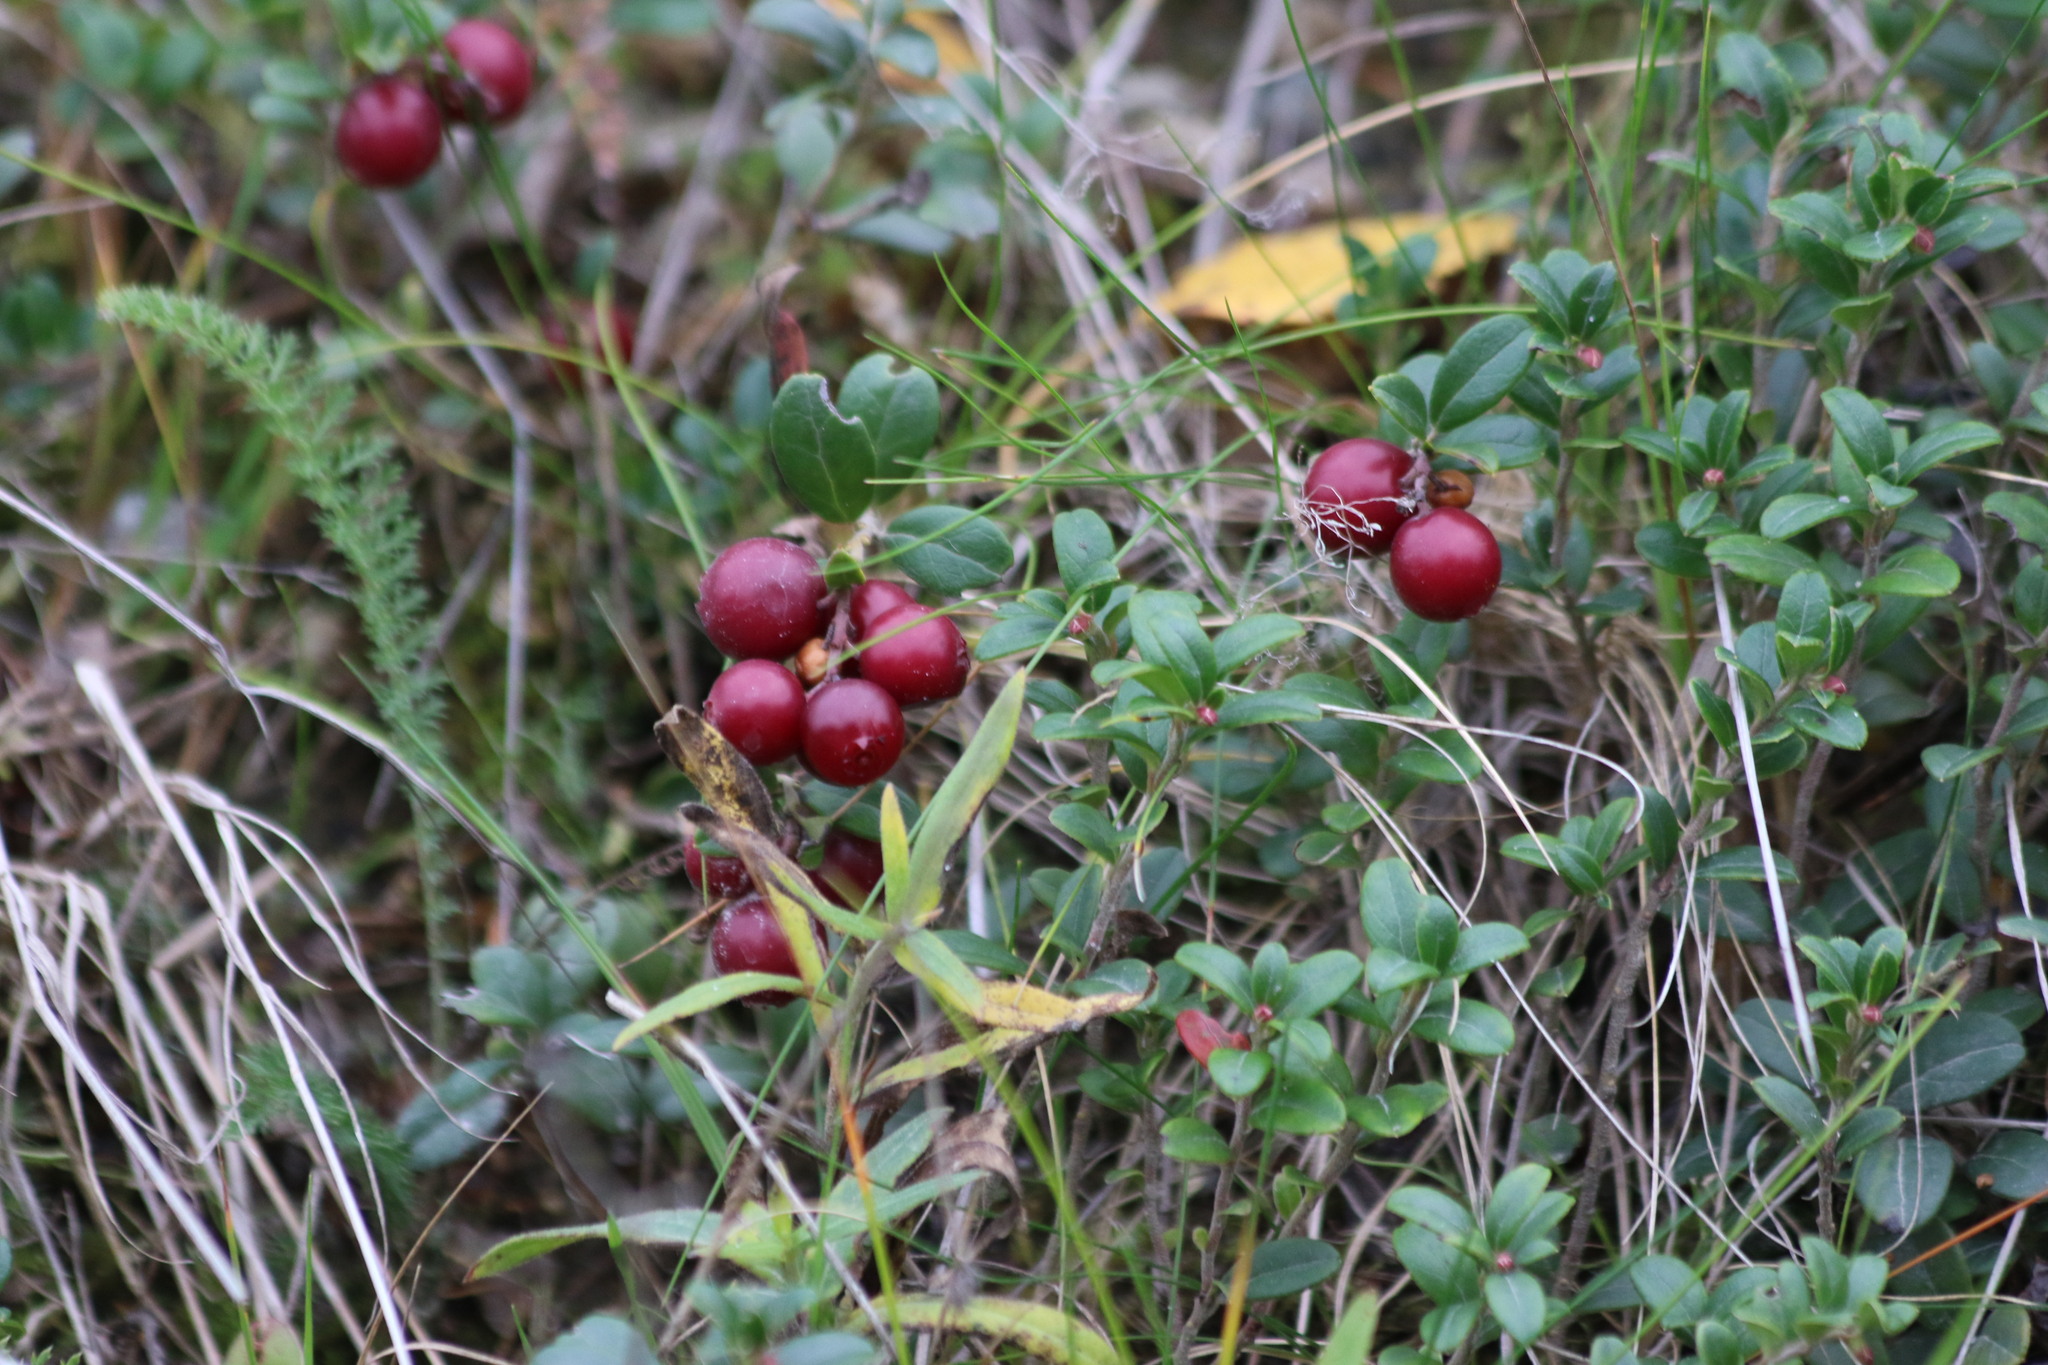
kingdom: Plantae
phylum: Tracheophyta
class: Magnoliopsida
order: Ericales
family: Ericaceae
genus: Vaccinium
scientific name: Vaccinium vitis-idaea
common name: Cowberry
